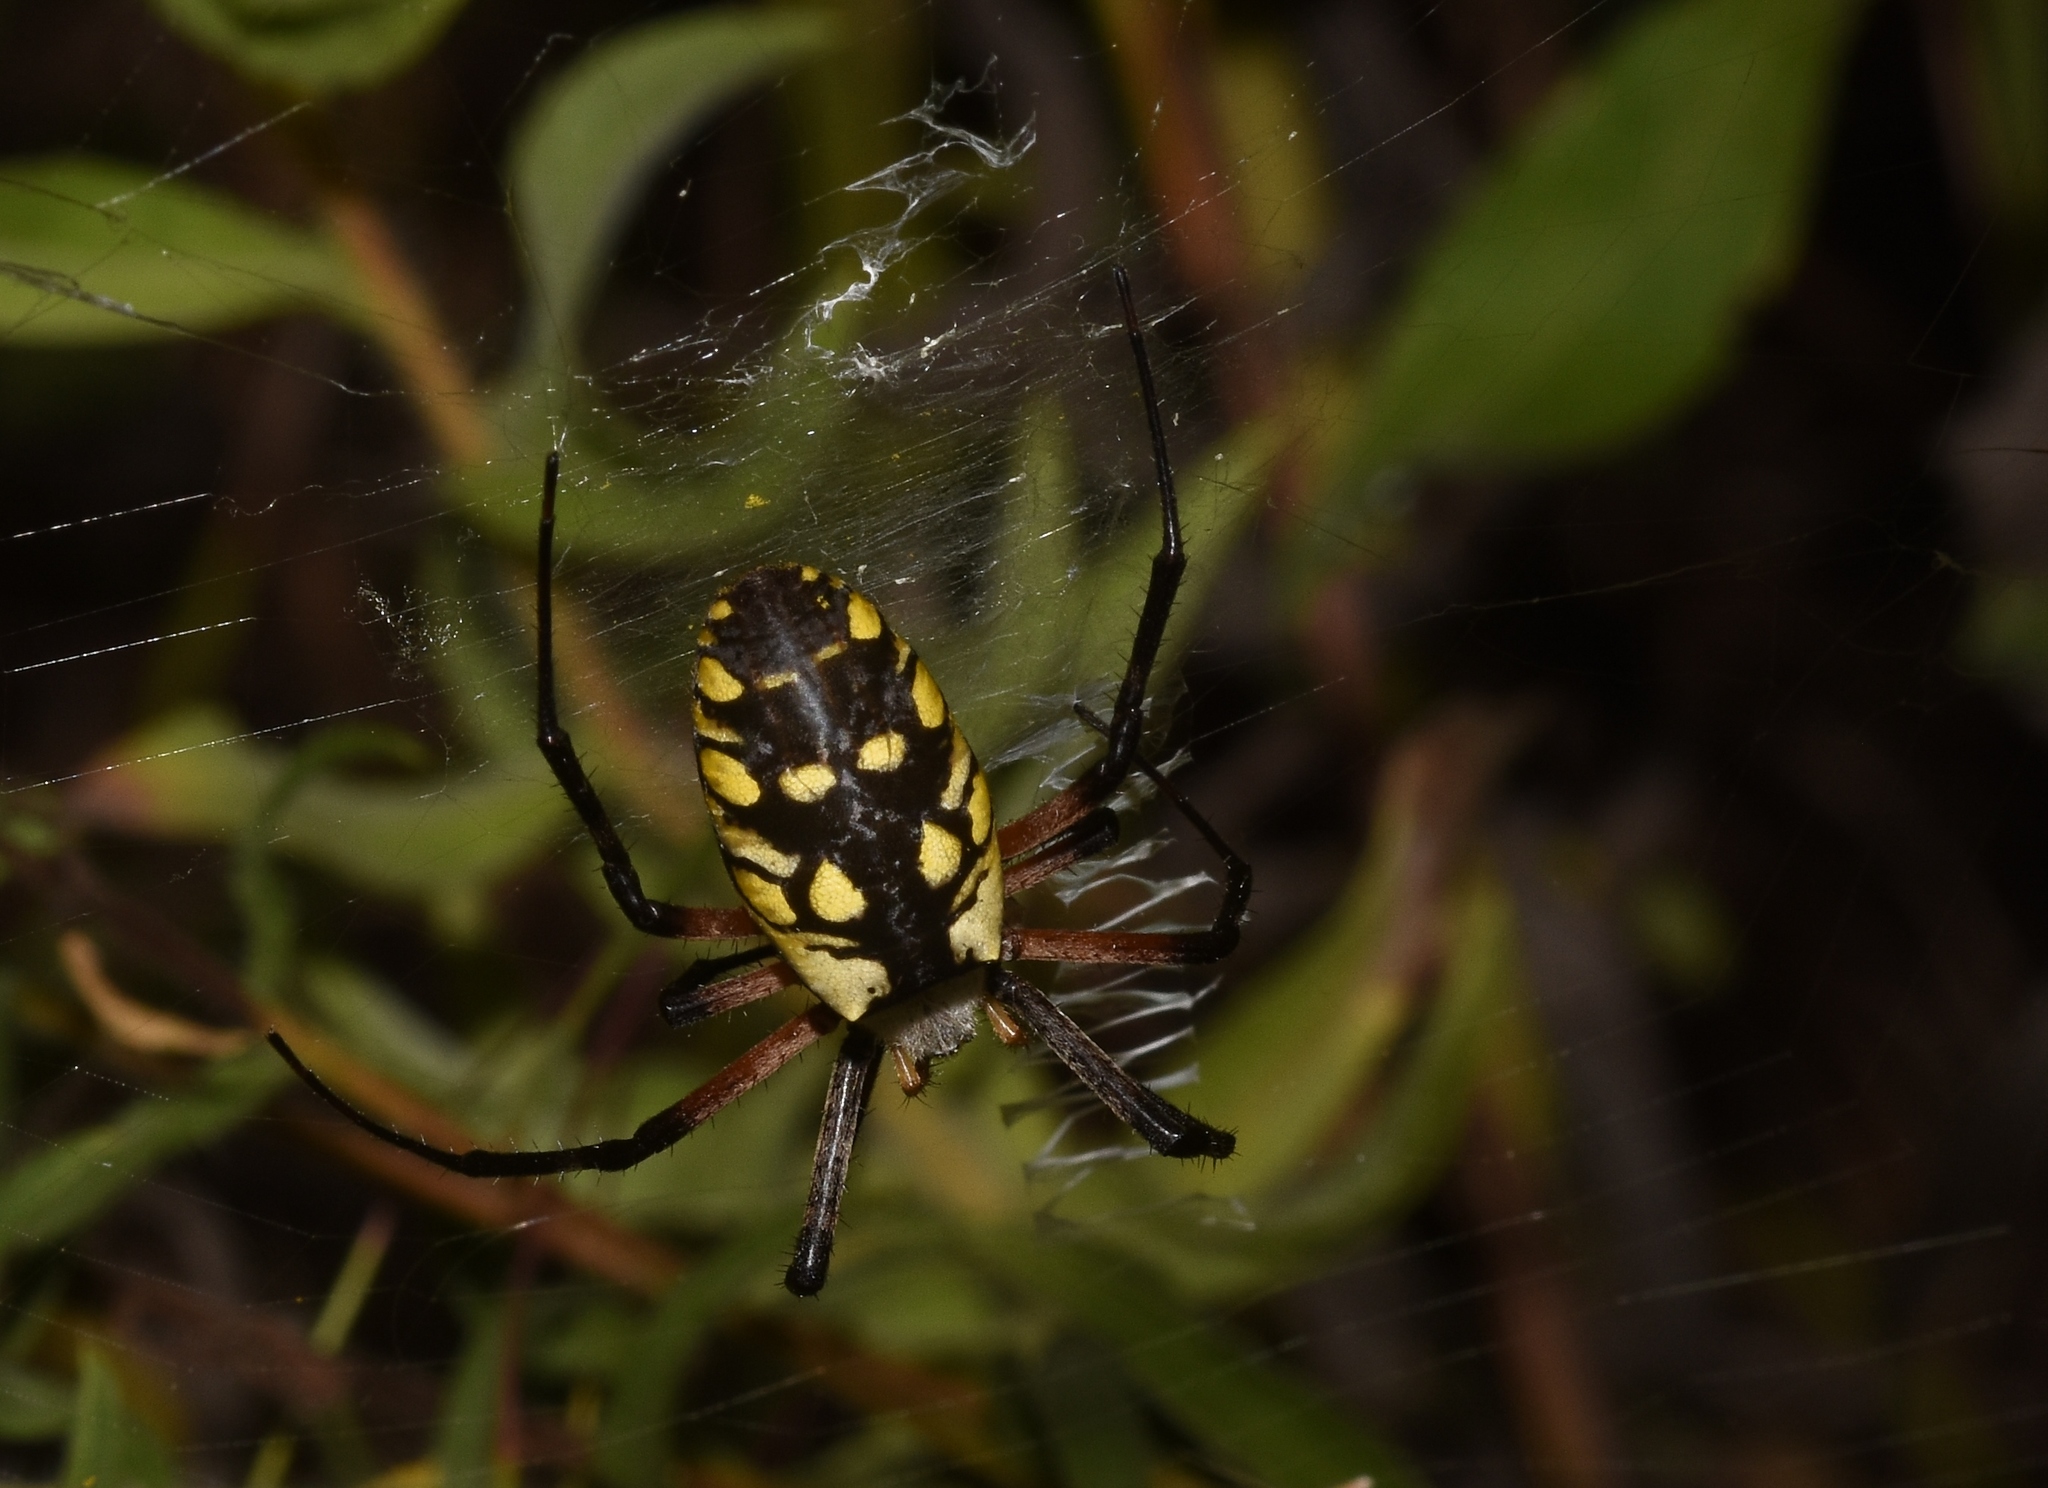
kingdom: Animalia
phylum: Arthropoda
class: Arachnida
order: Araneae
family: Araneidae
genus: Argiope
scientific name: Argiope aurantia
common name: Orb weavers
